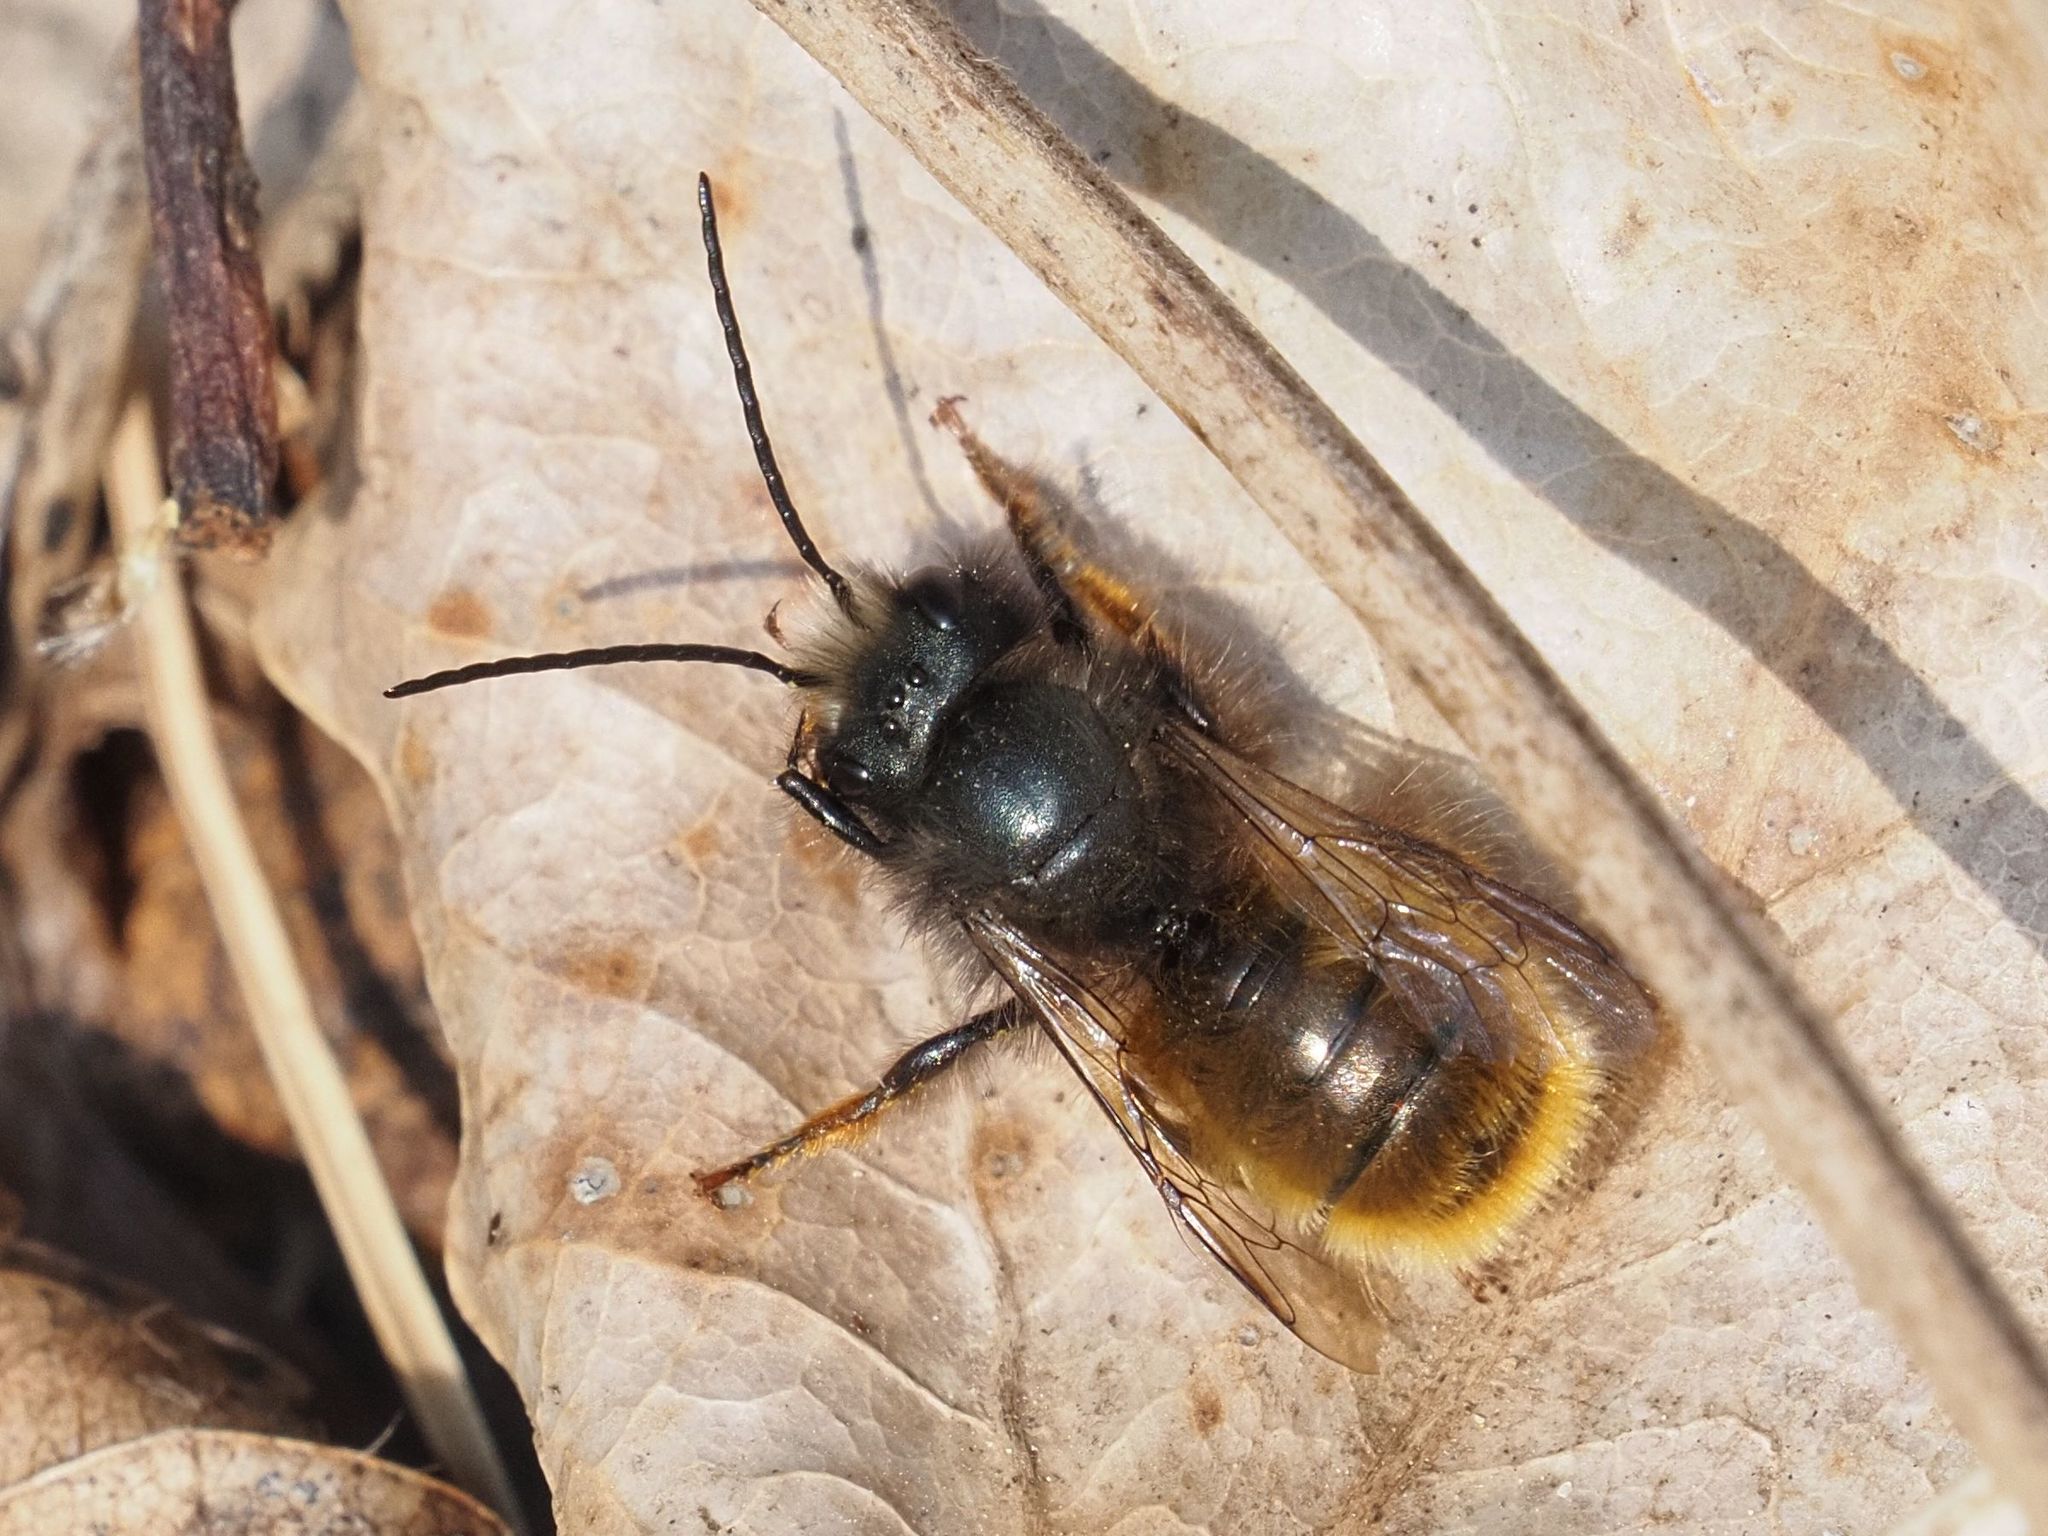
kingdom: Animalia
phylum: Arthropoda
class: Insecta
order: Hymenoptera
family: Megachilidae
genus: Osmia
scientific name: Osmia cornuta
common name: Mason bee
